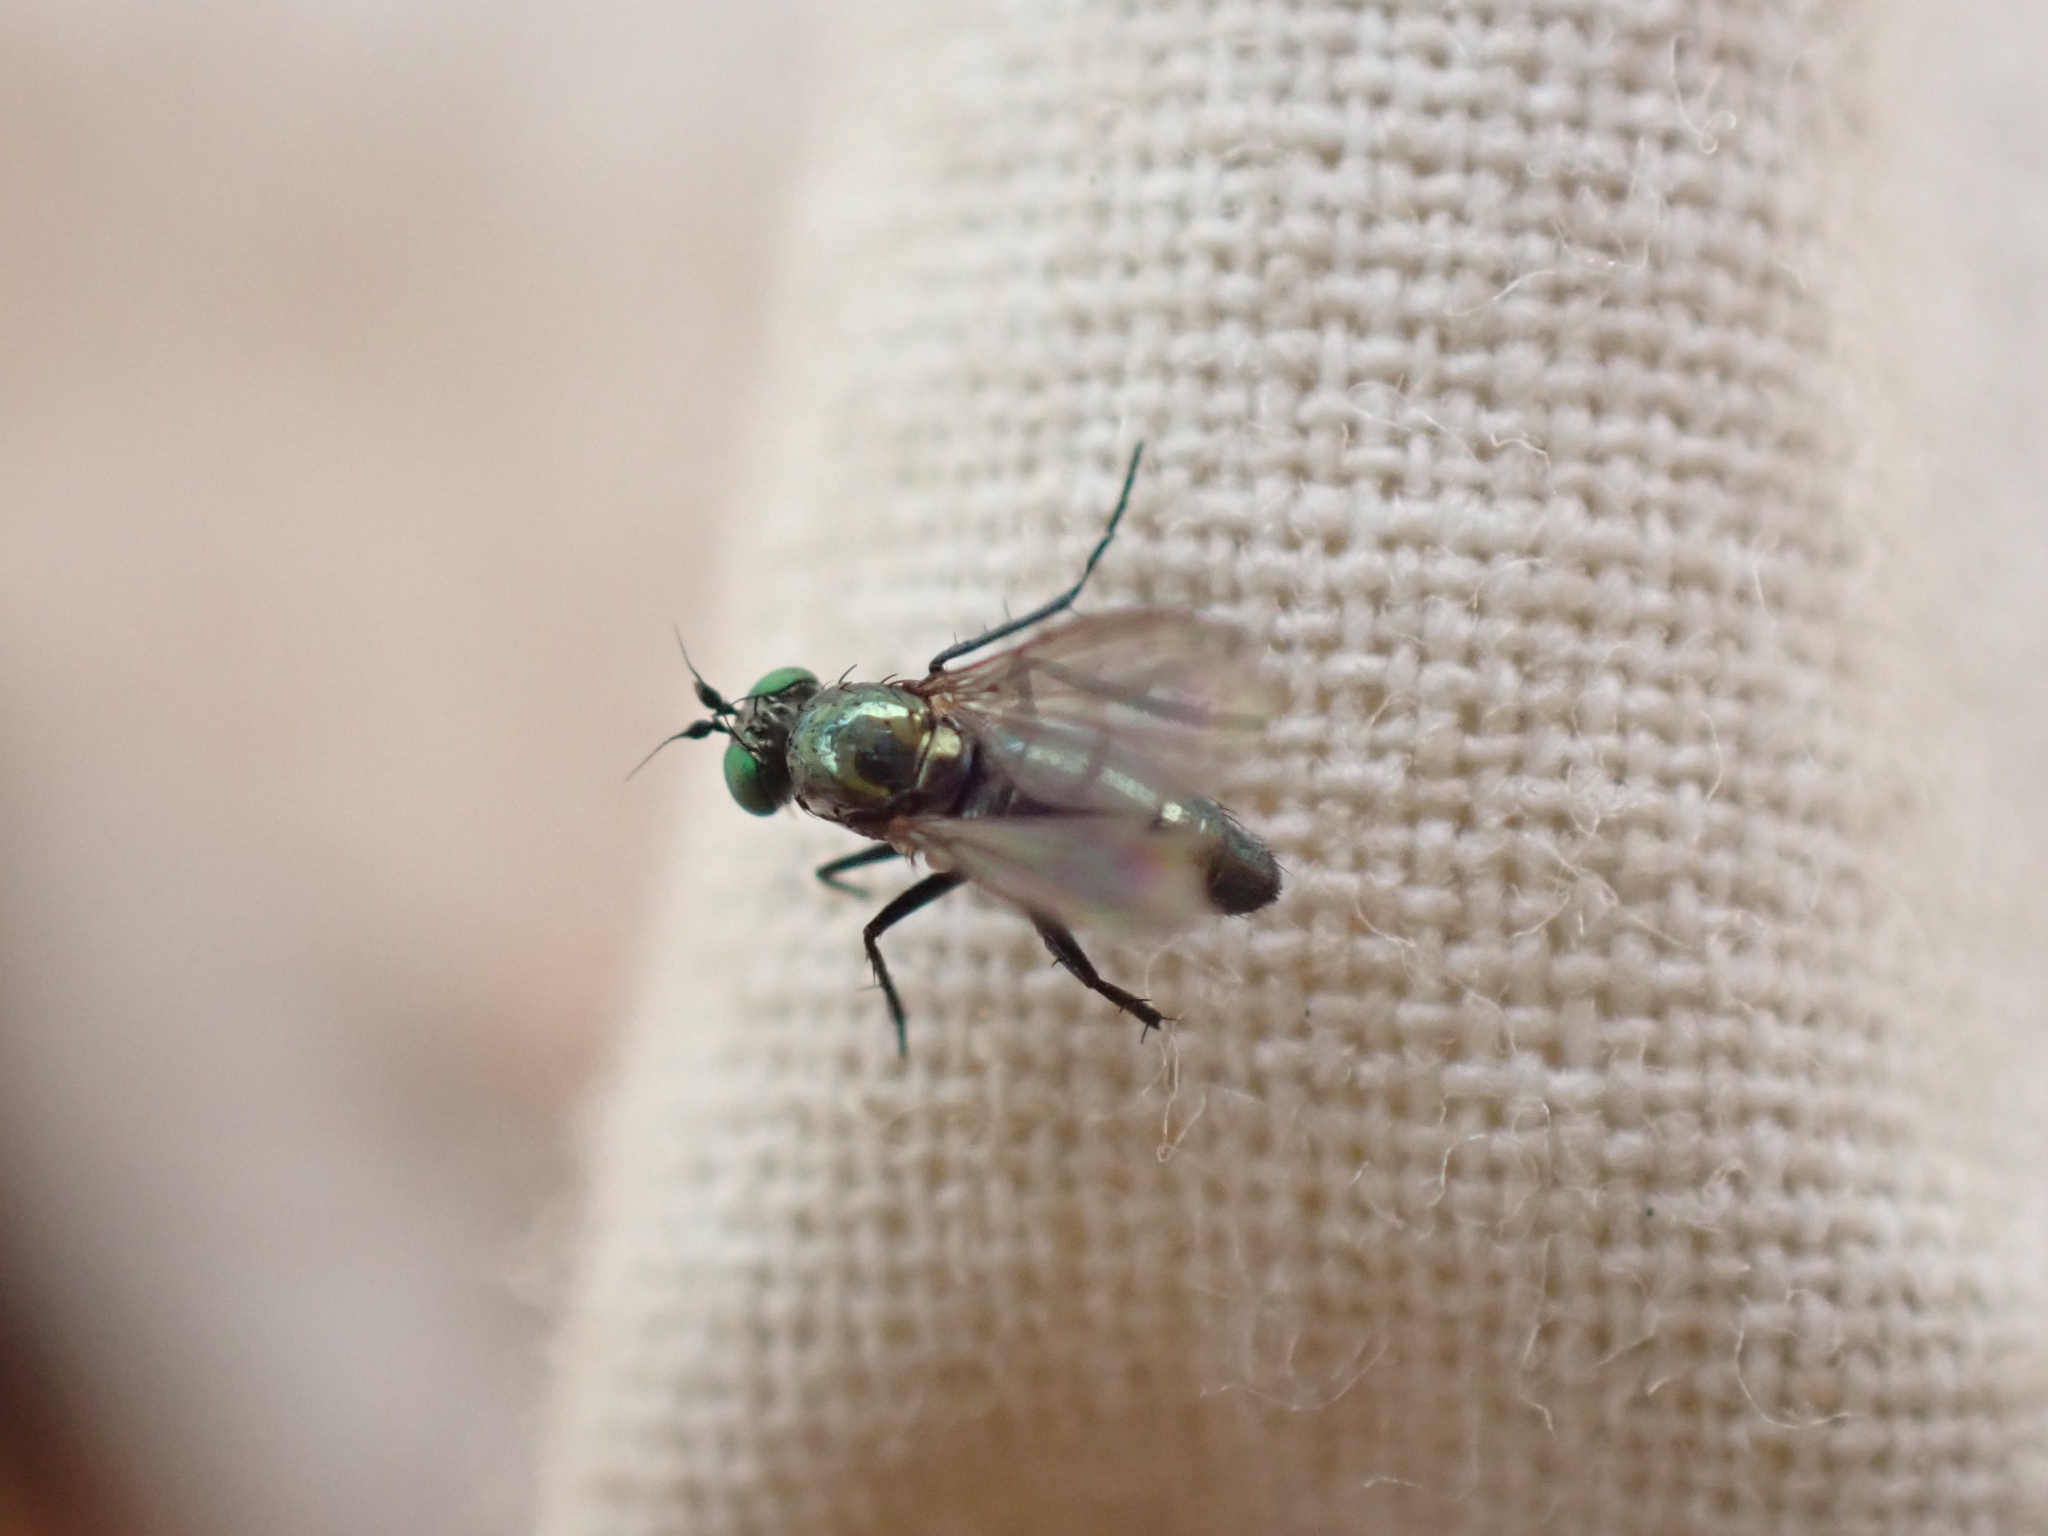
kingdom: Animalia
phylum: Arthropoda
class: Insecta
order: Diptera
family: Dolichopodidae
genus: Hercostomus
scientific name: Hercostomus unicolor
